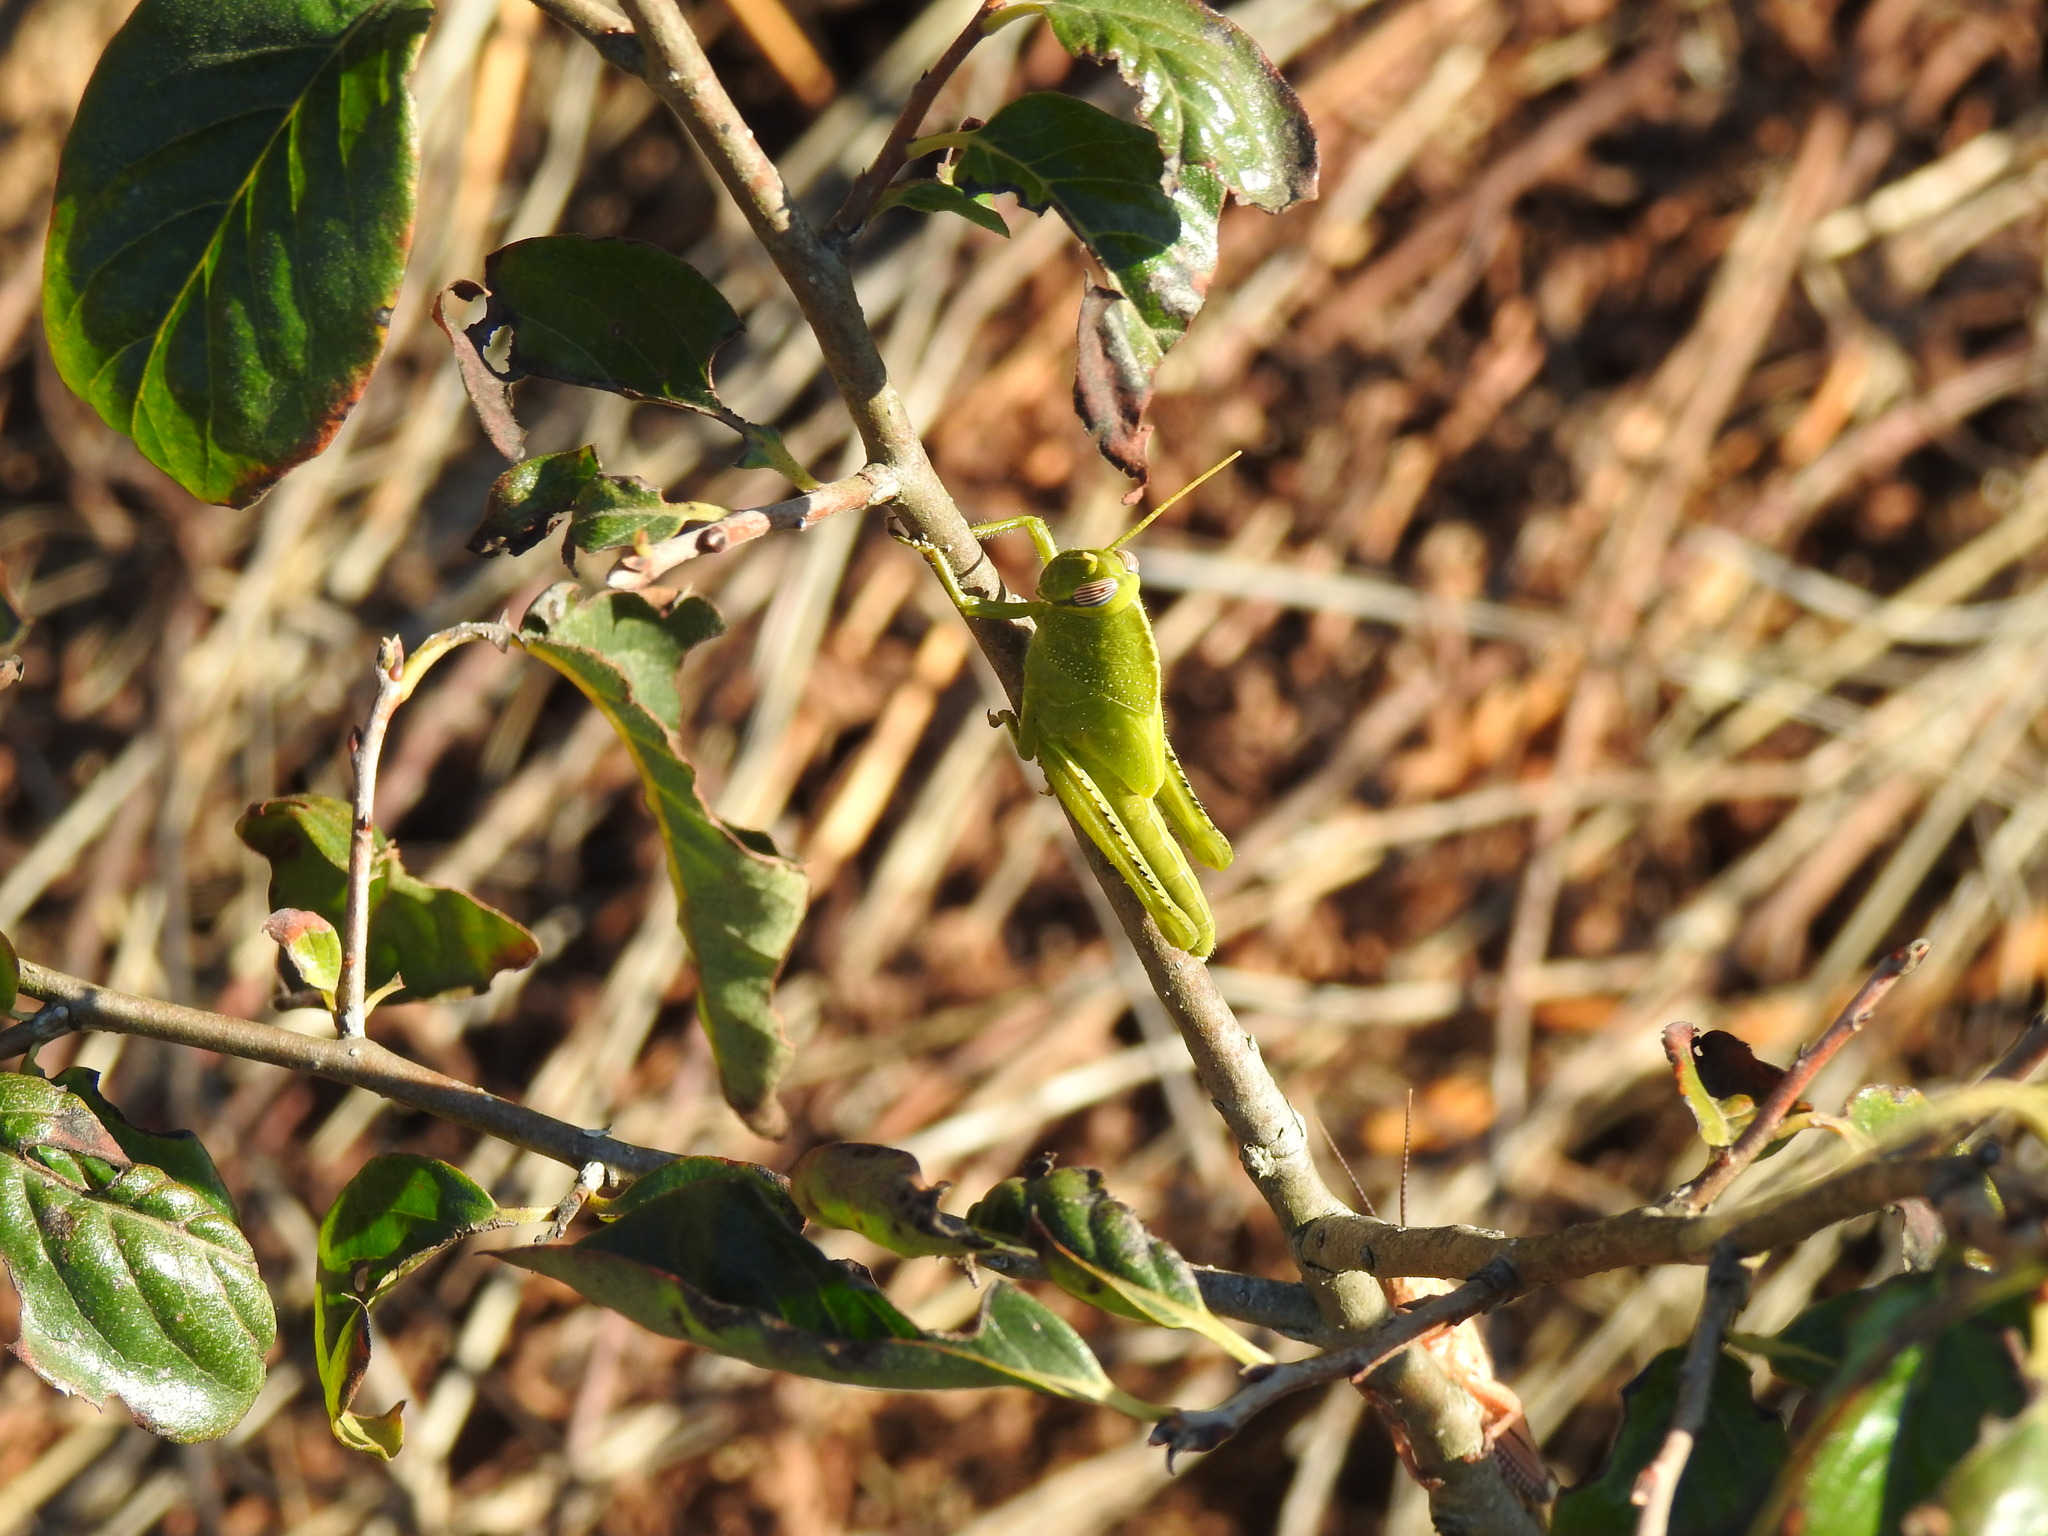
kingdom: Animalia
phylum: Arthropoda
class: Insecta
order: Orthoptera
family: Acrididae
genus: Anacridium
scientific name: Anacridium aegyptium
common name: Egyptian grasshopper
